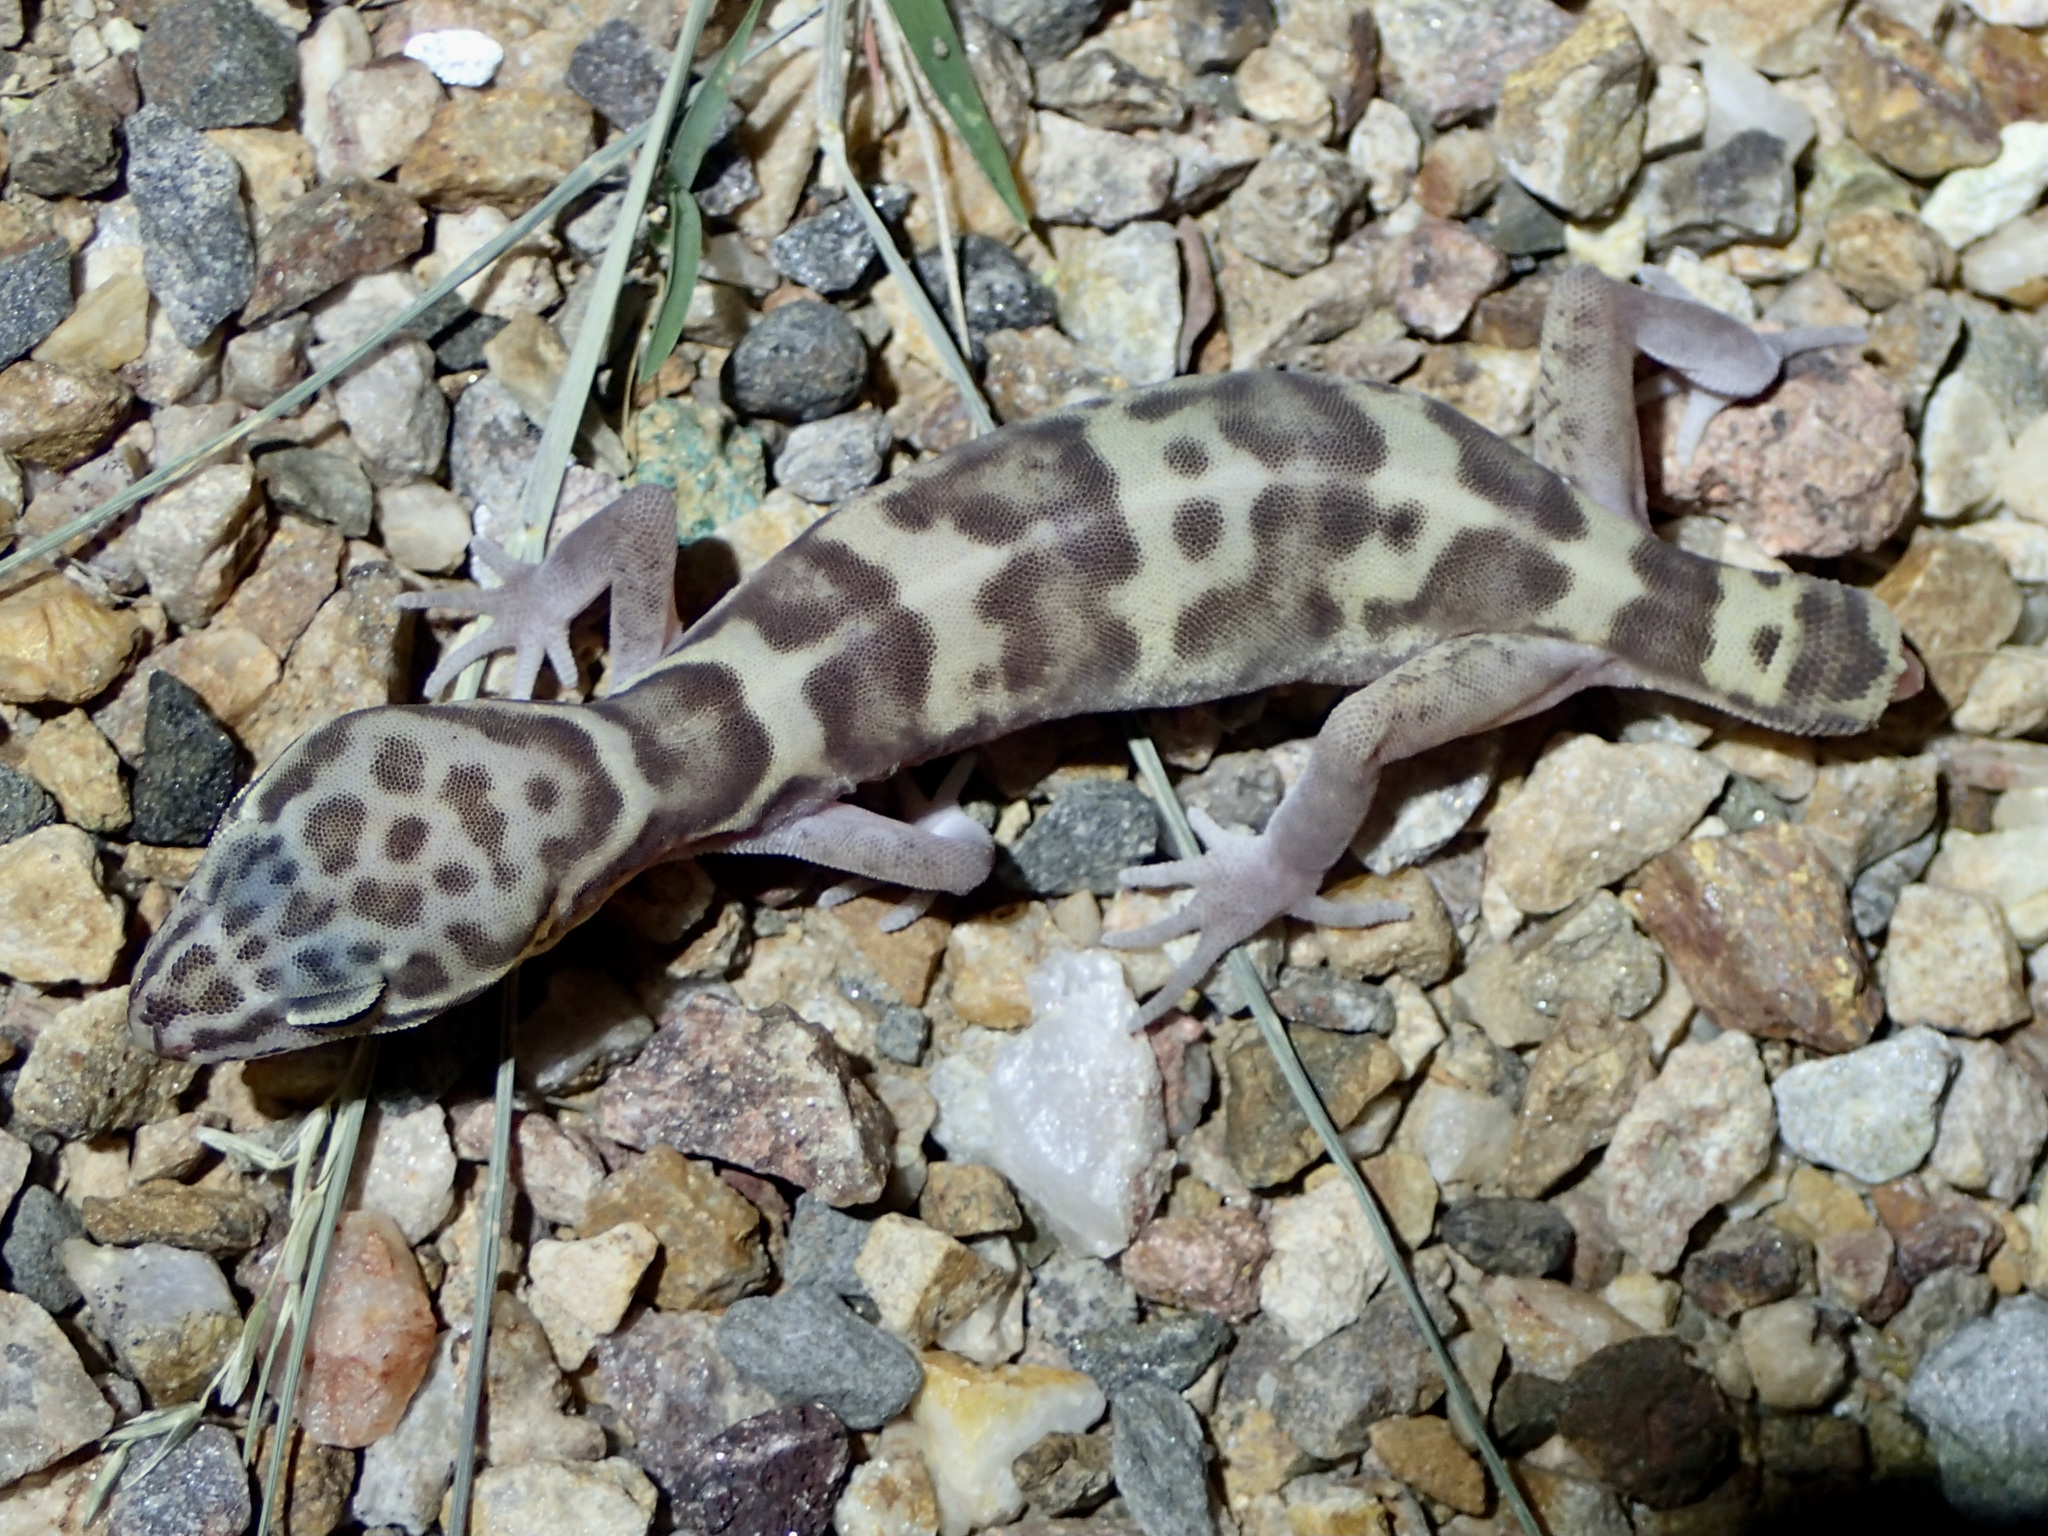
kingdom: Animalia
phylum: Chordata
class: Squamata
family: Eublepharidae
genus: Coleonyx
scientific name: Coleonyx variegatus
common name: Western banded gecko
